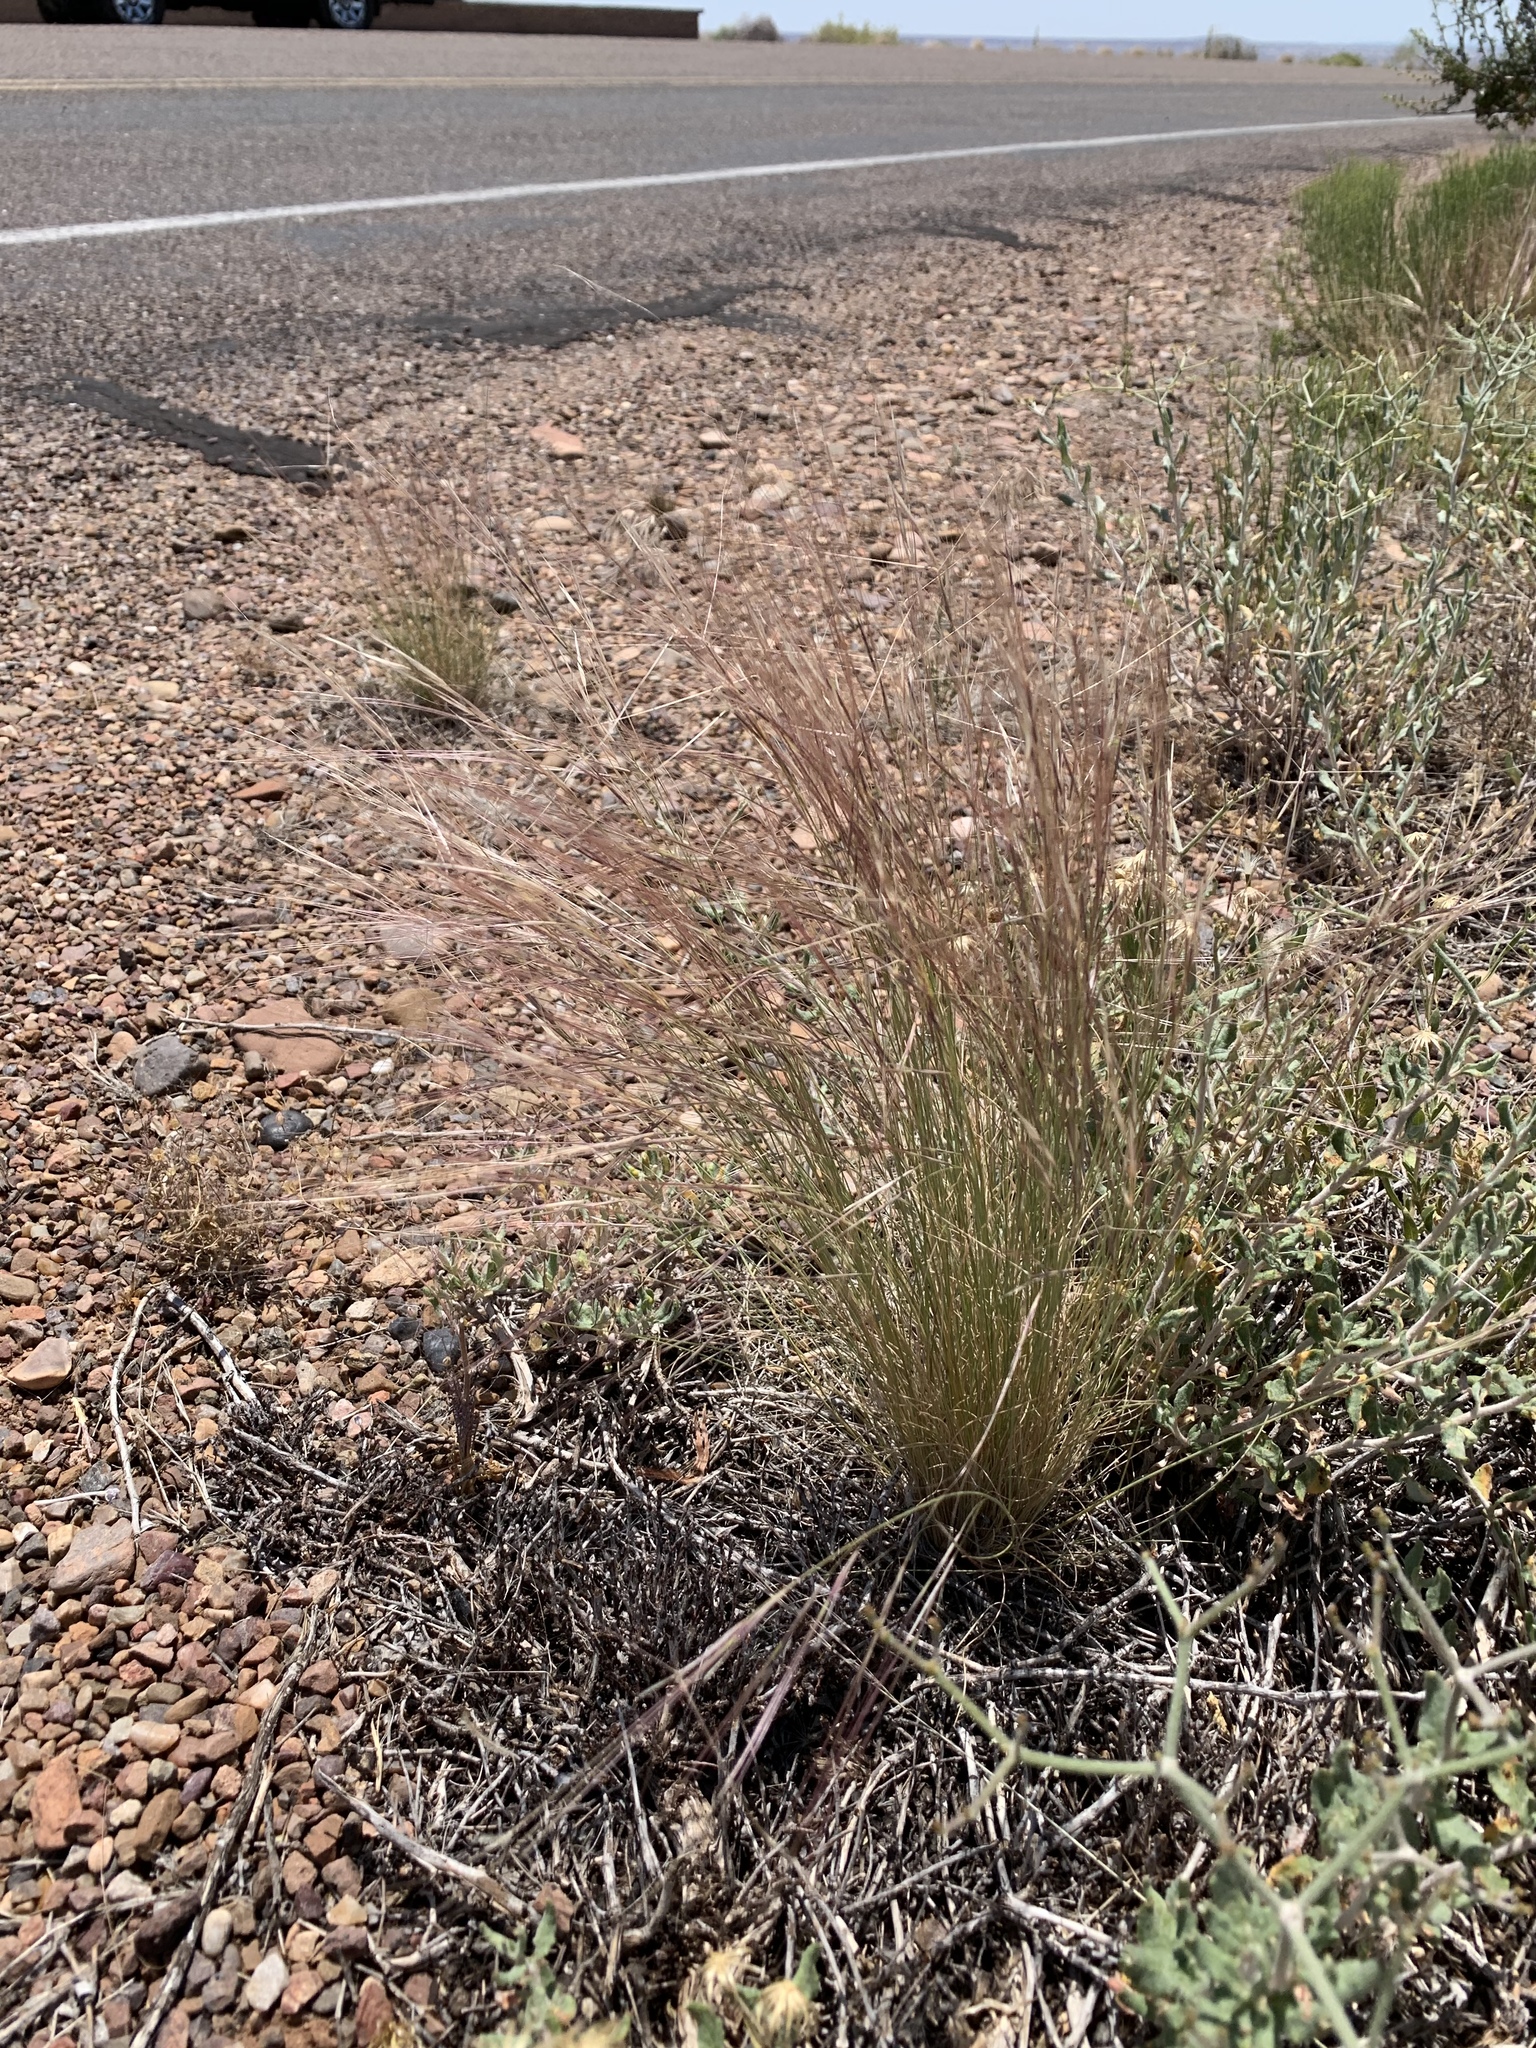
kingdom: Plantae
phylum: Tracheophyta
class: Liliopsida
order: Poales
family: Poaceae
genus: Aristida
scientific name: Aristida purpurea
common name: Purple threeawn
